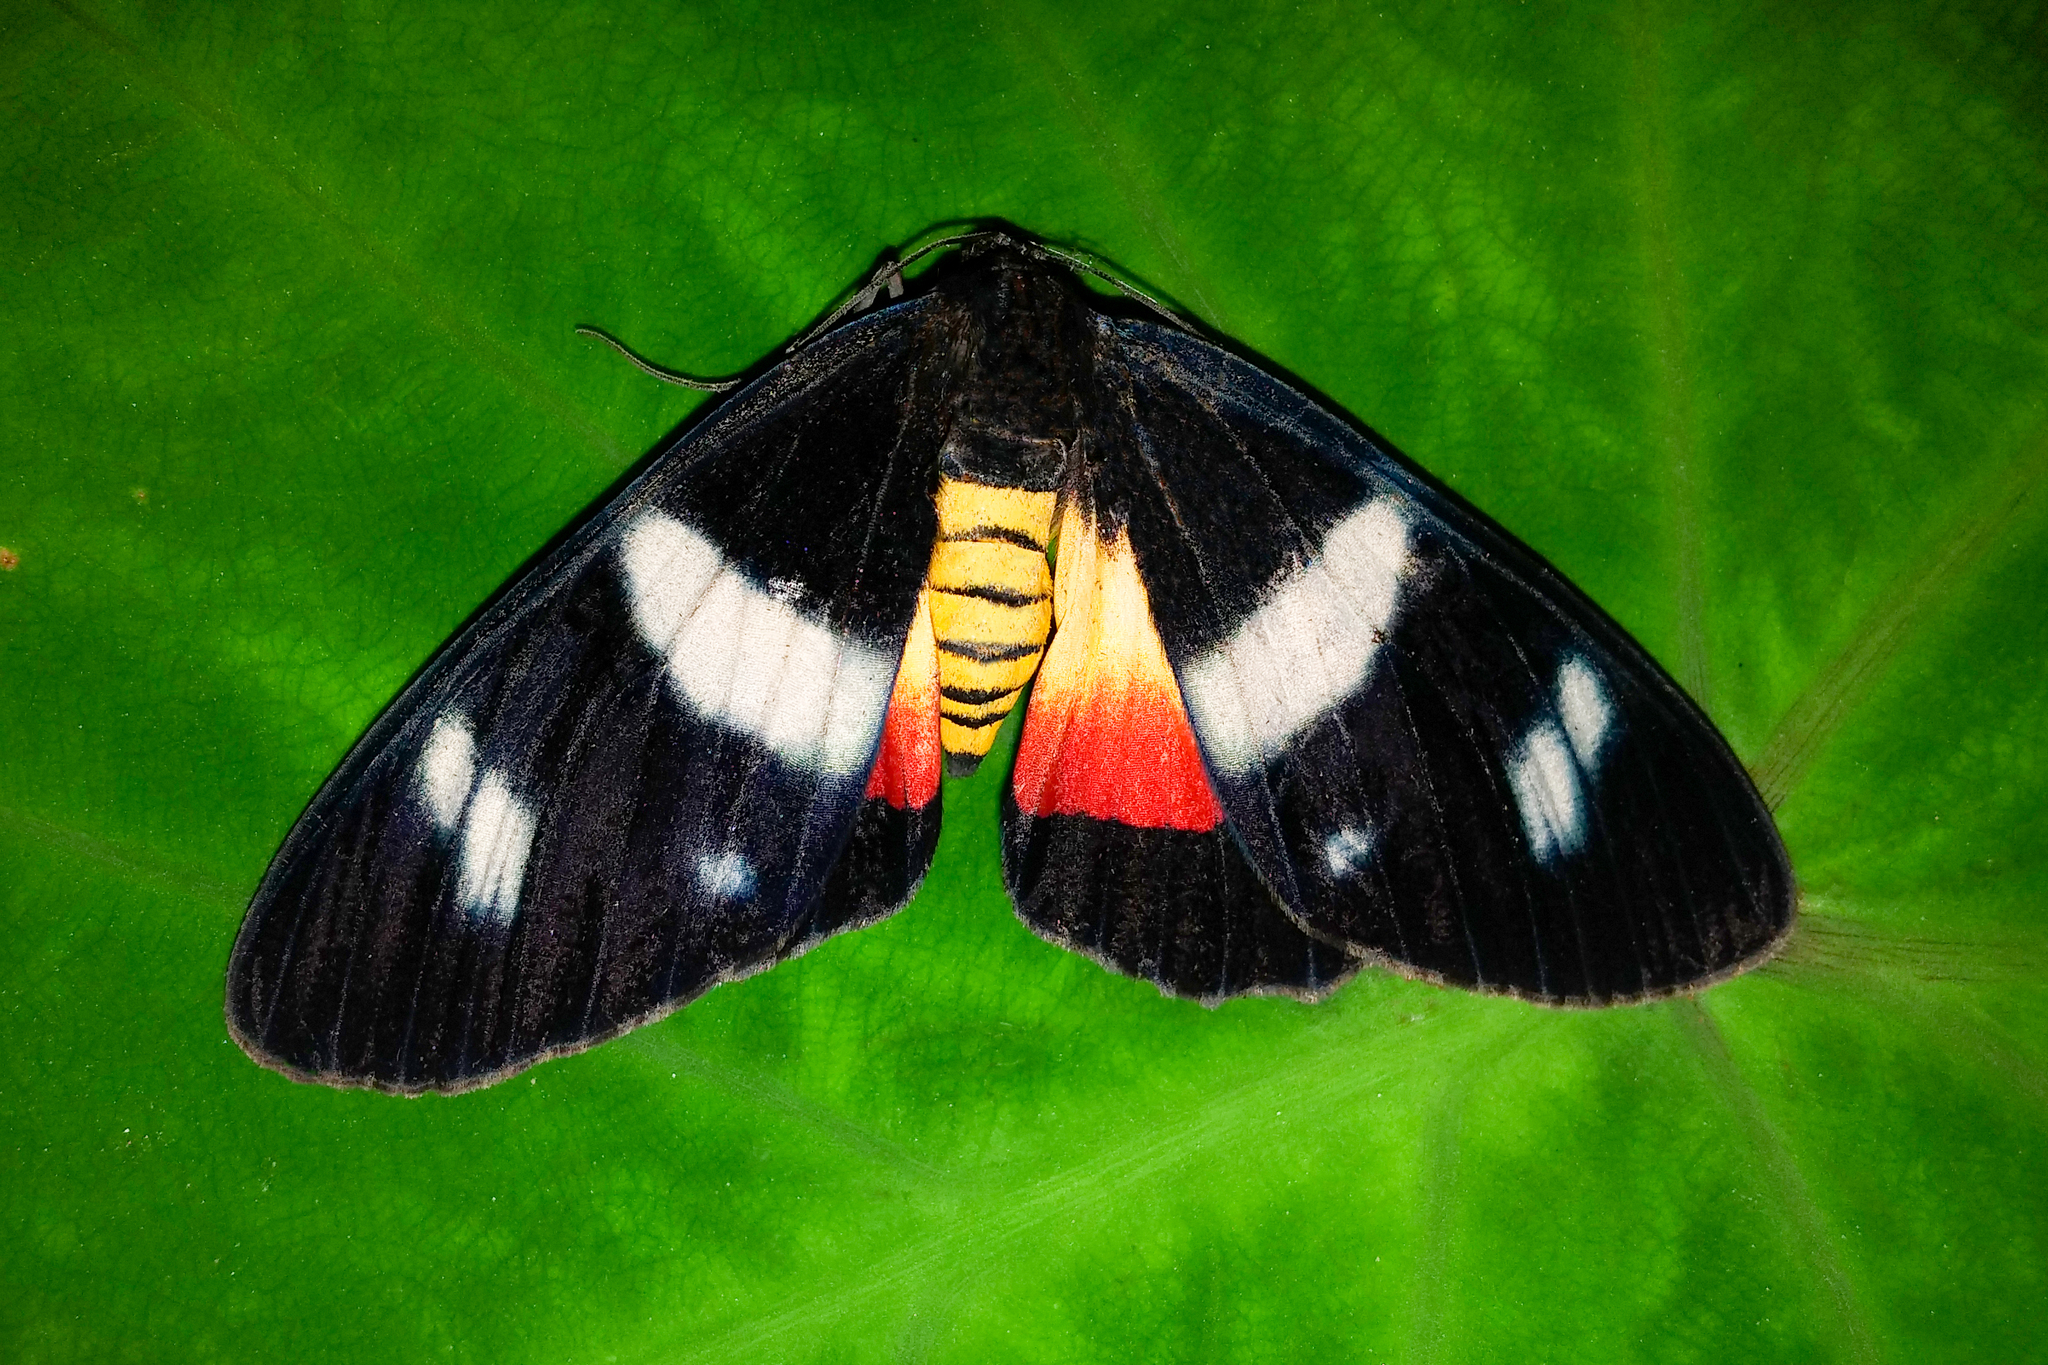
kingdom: Animalia
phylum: Arthropoda
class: Insecta
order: Lepidoptera
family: Geometridae
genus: Callhistia
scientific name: Callhistia
